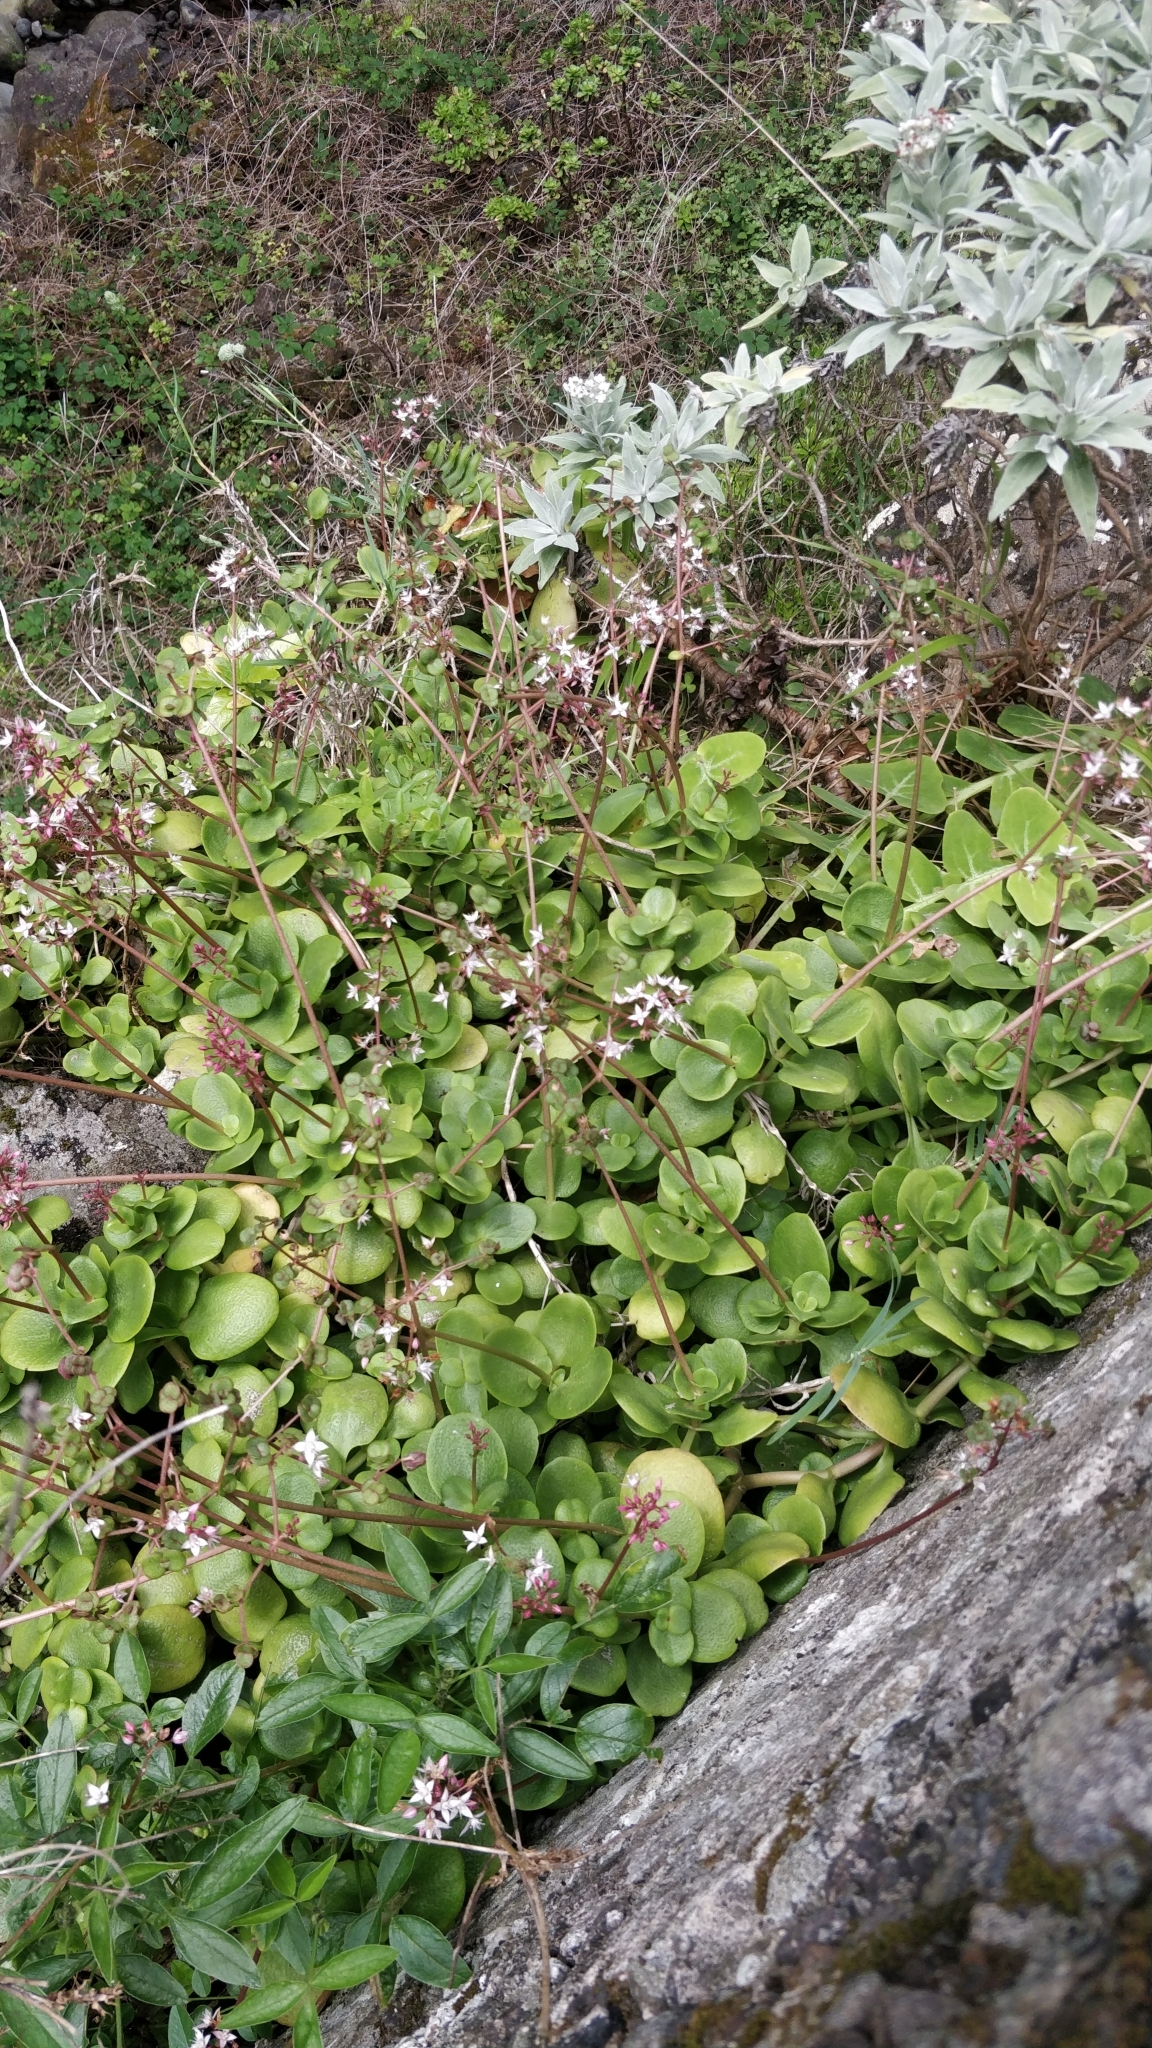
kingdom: Plantae
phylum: Tracheophyta
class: Magnoliopsida
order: Saxifragales
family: Crassulaceae
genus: Crassula
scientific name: Crassula multicava
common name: Cape province pygmyweed
